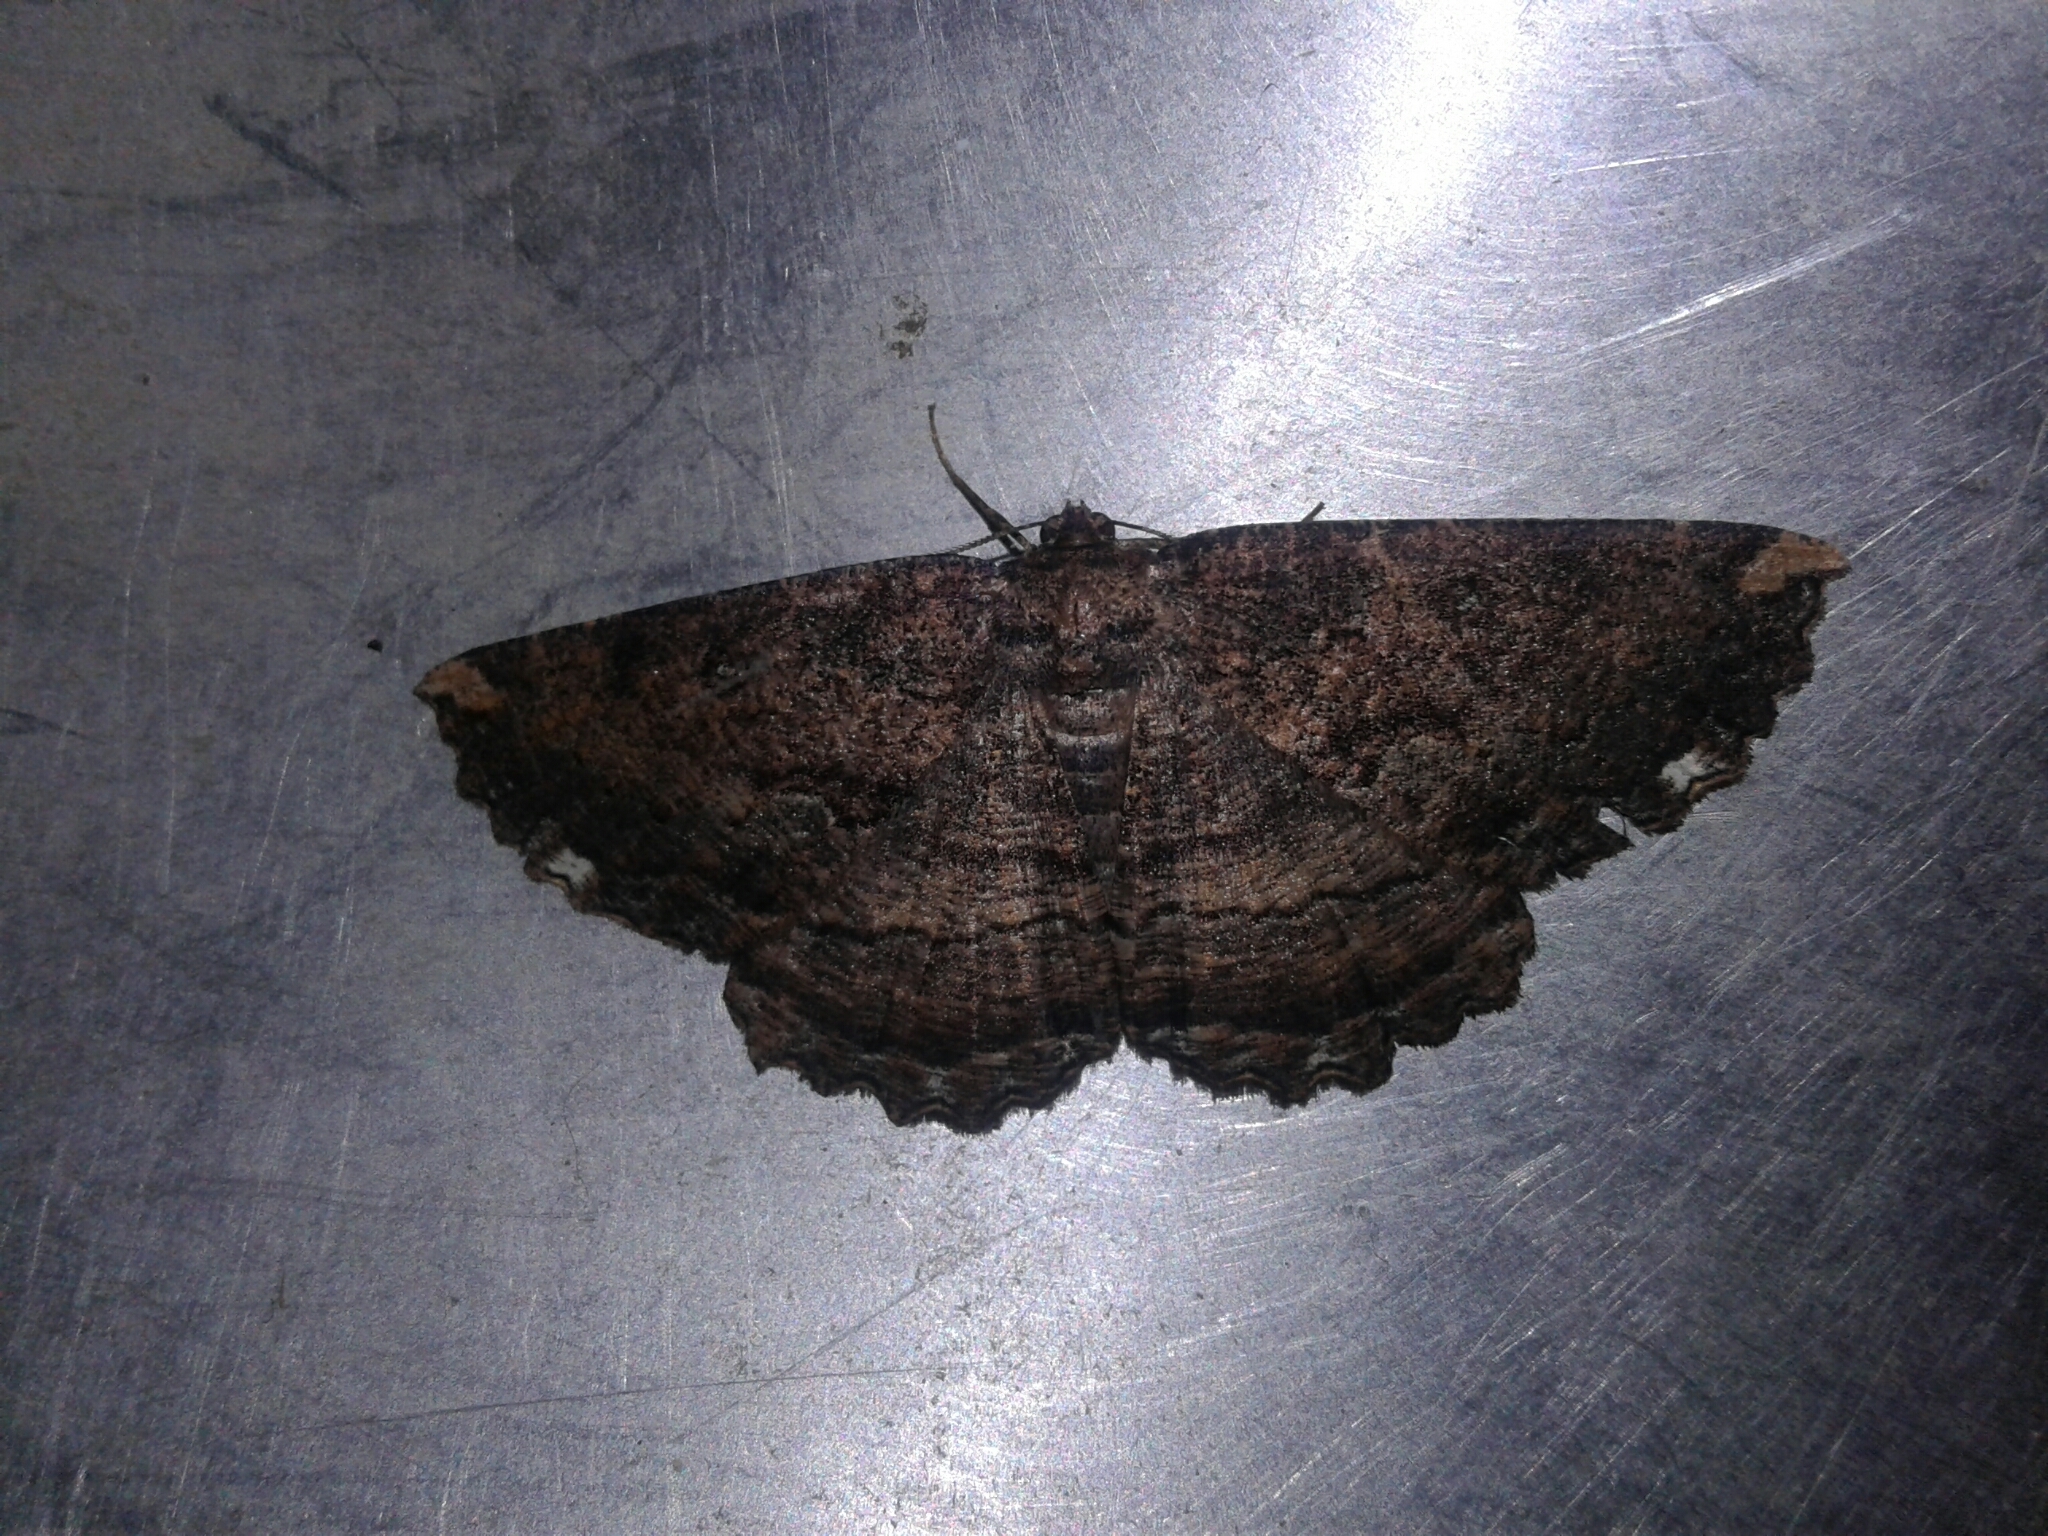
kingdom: Animalia
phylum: Arthropoda
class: Insecta
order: Lepidoptera
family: Geometridae
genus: Gellonia
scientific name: Gellonia dejectaria
